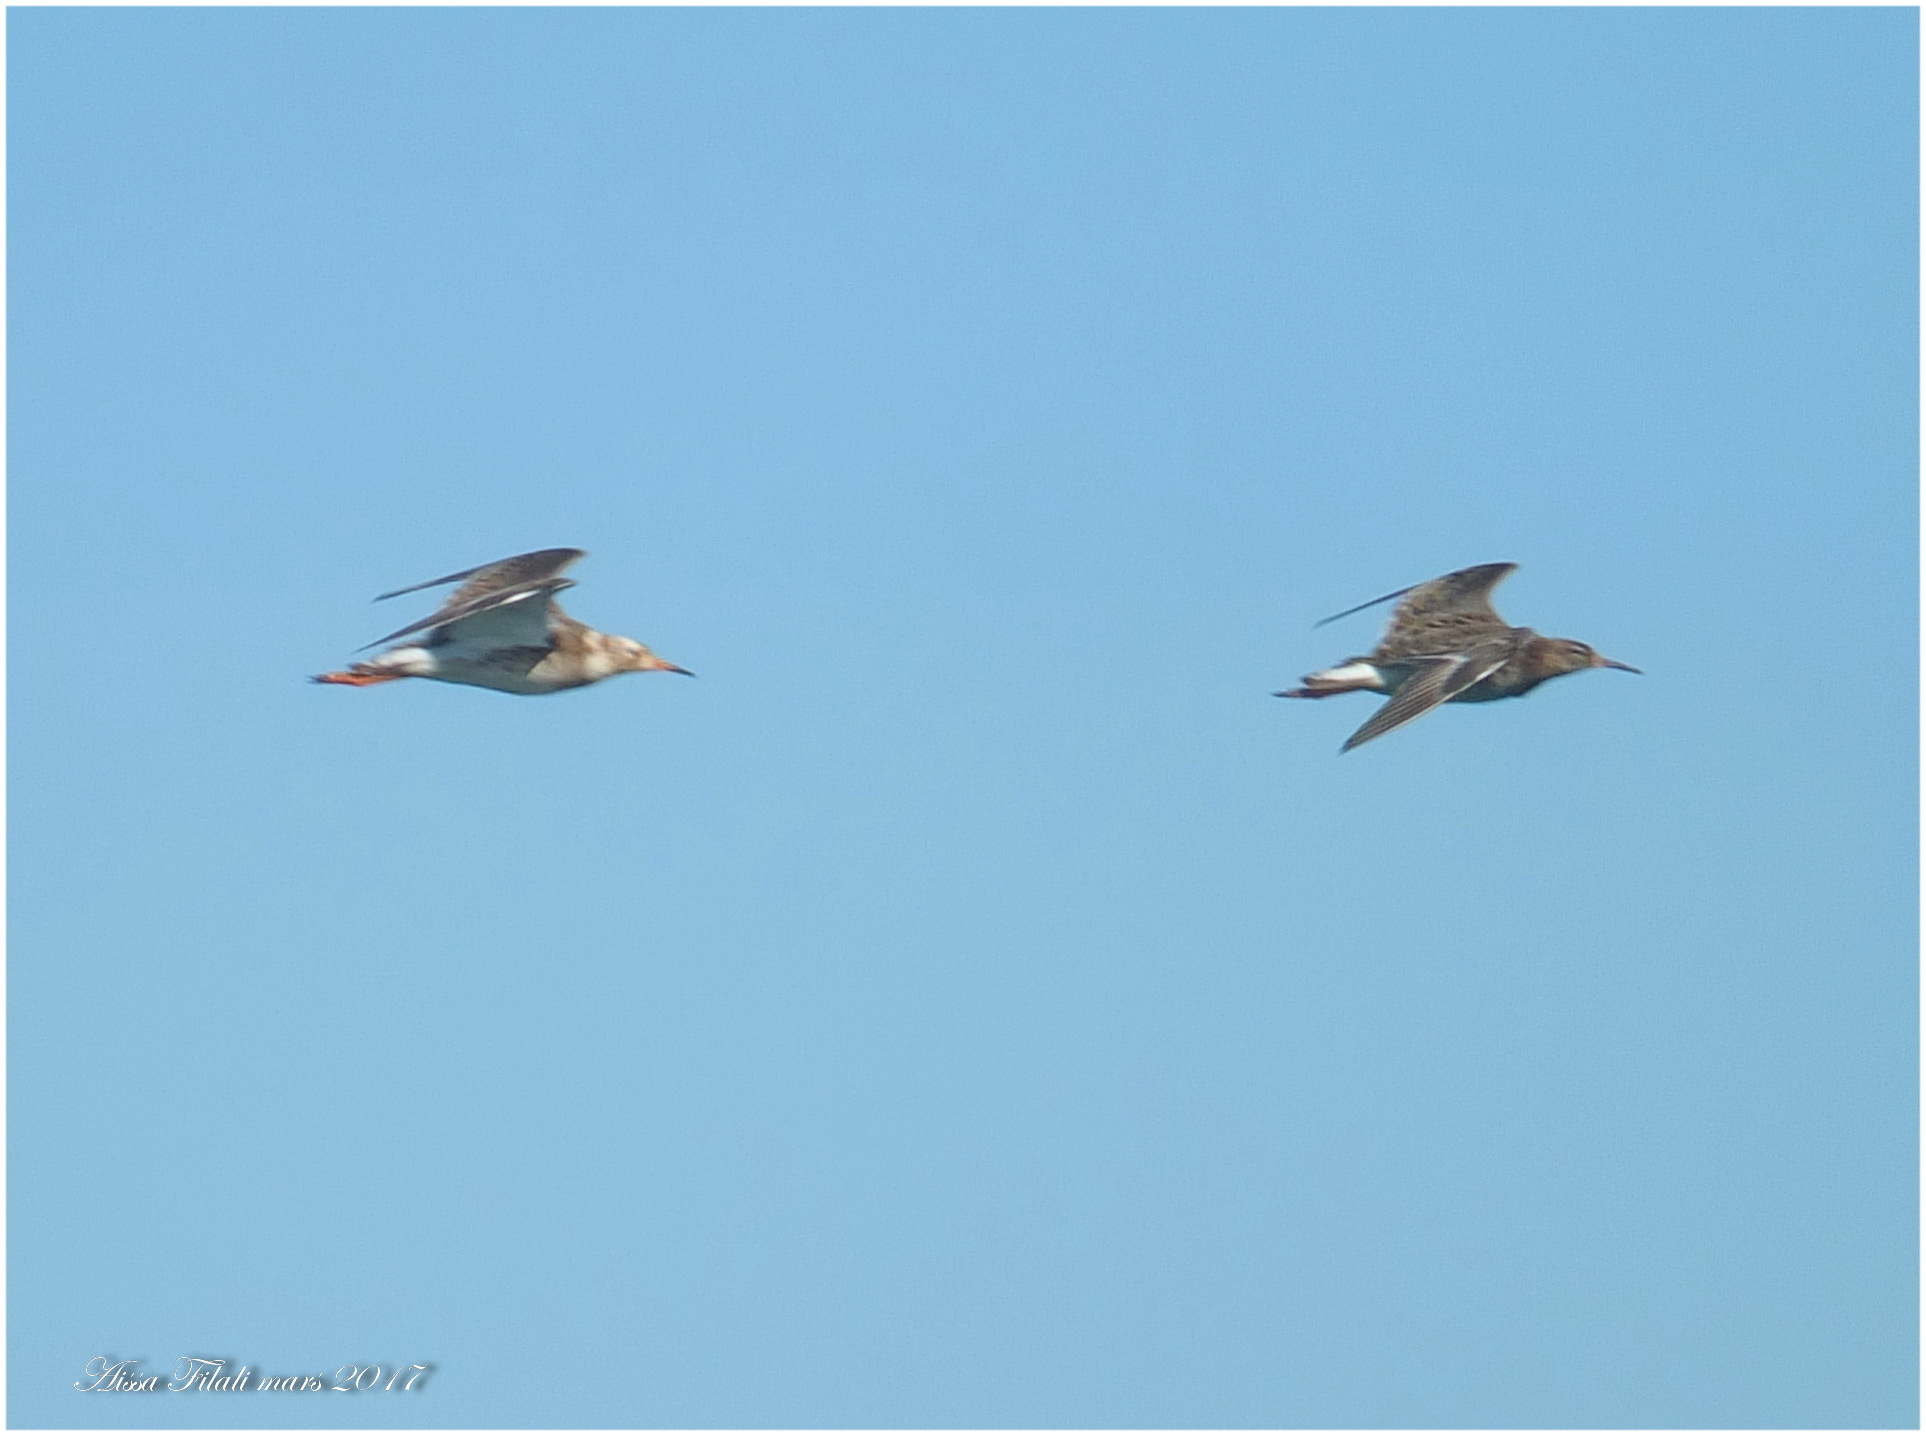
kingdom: Animalia
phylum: Chordata
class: Aves
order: Charadriiformes
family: Scolopacidae
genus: Calidris
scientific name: Calidris pugnax
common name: Ruff
